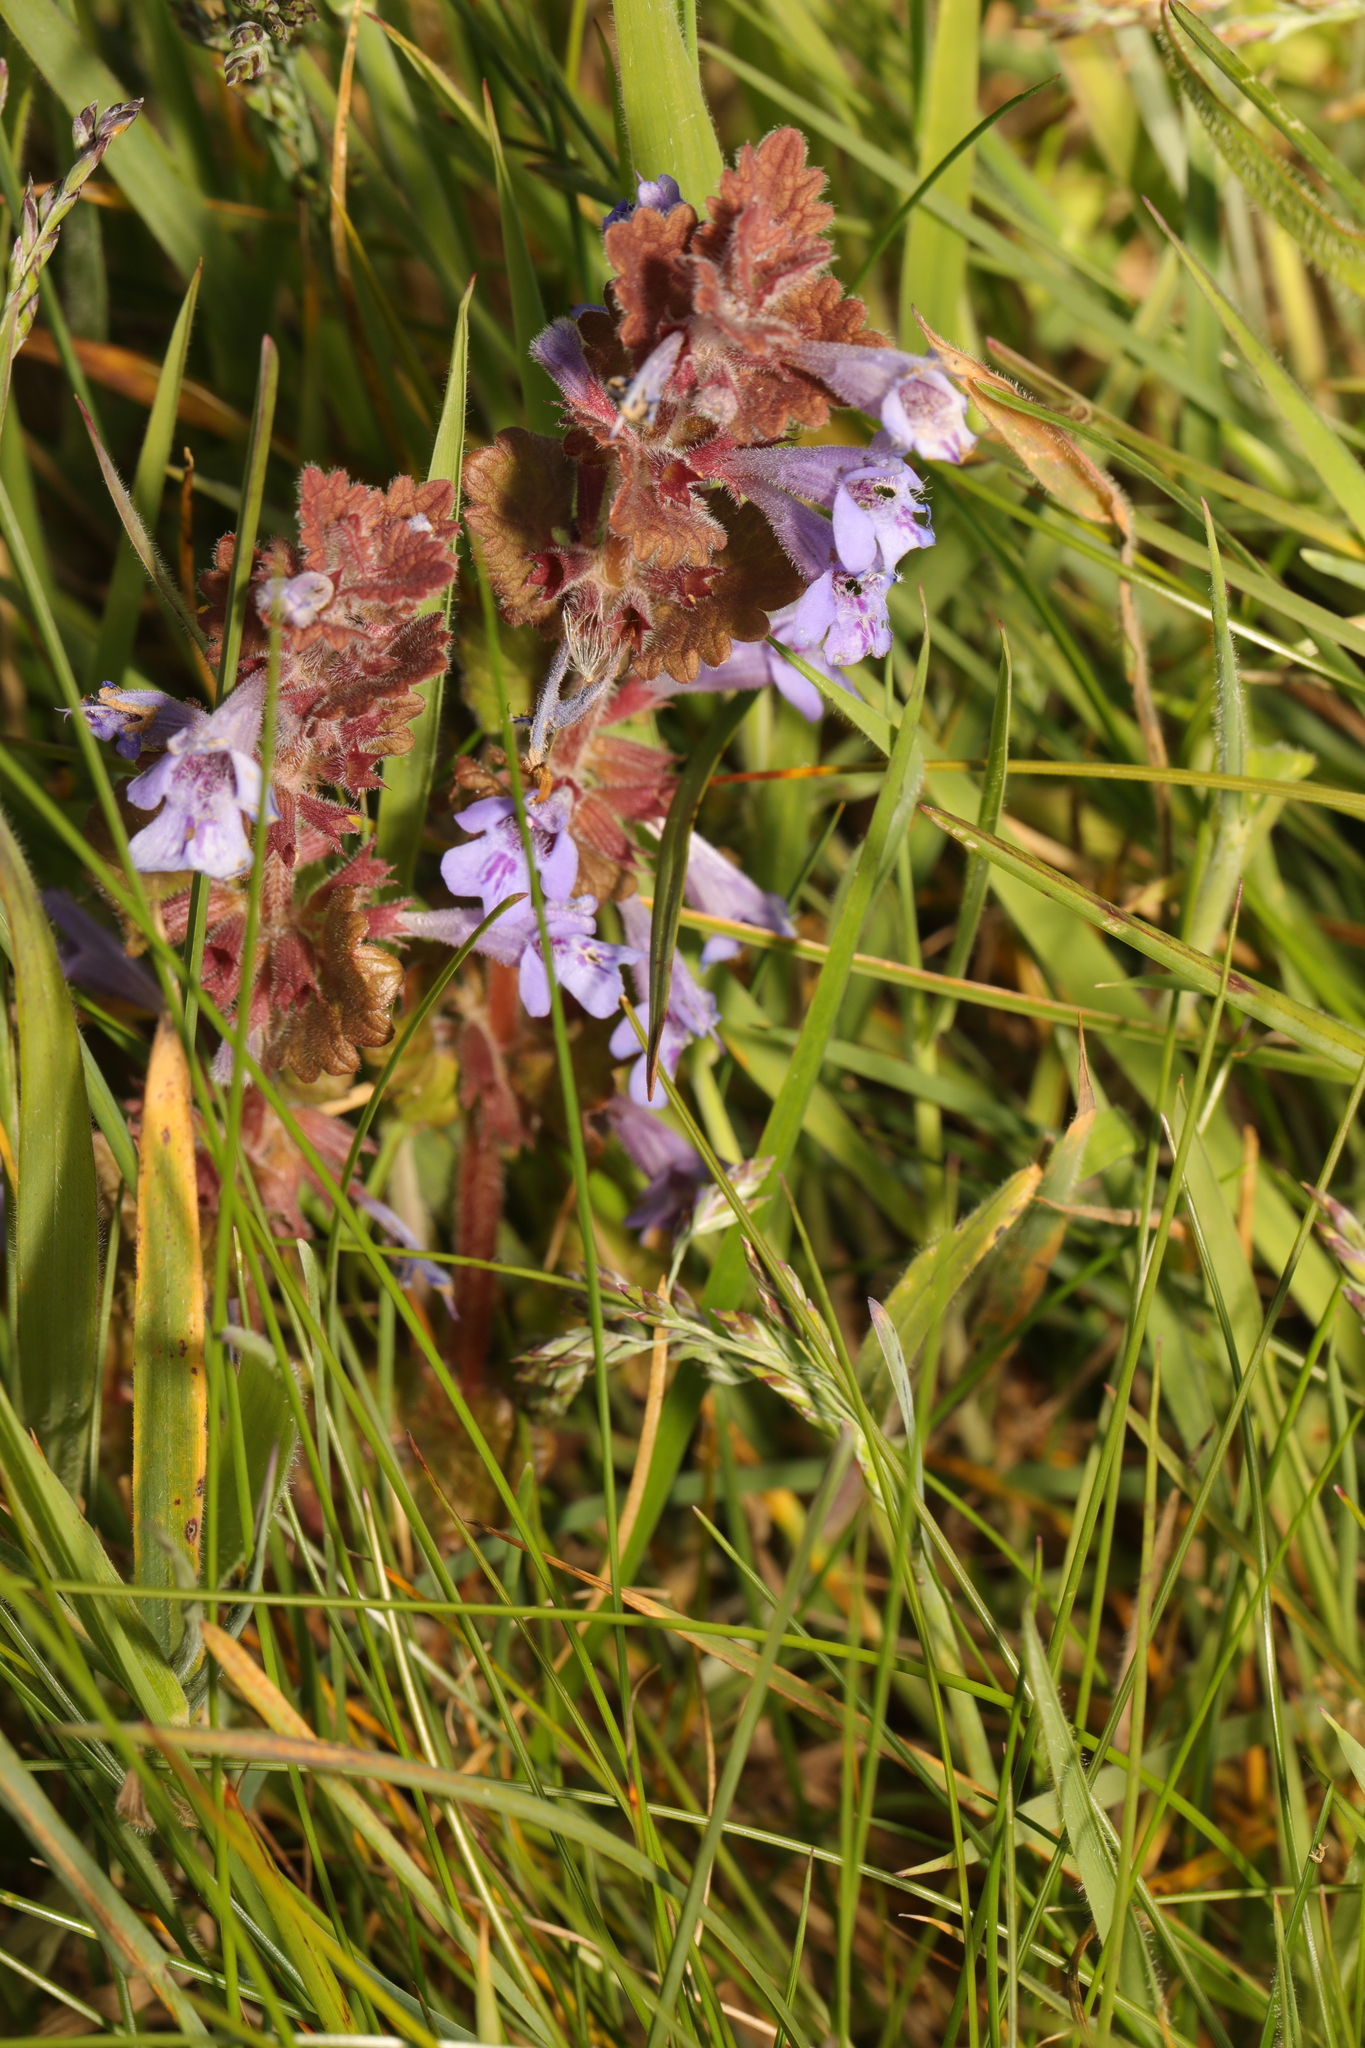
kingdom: Plantae
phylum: Tracheophyta
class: Magnoliopsida
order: Lamiales
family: Lamiaceae
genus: Glechoma
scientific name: Glechoma hederacea
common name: Ground ivy
